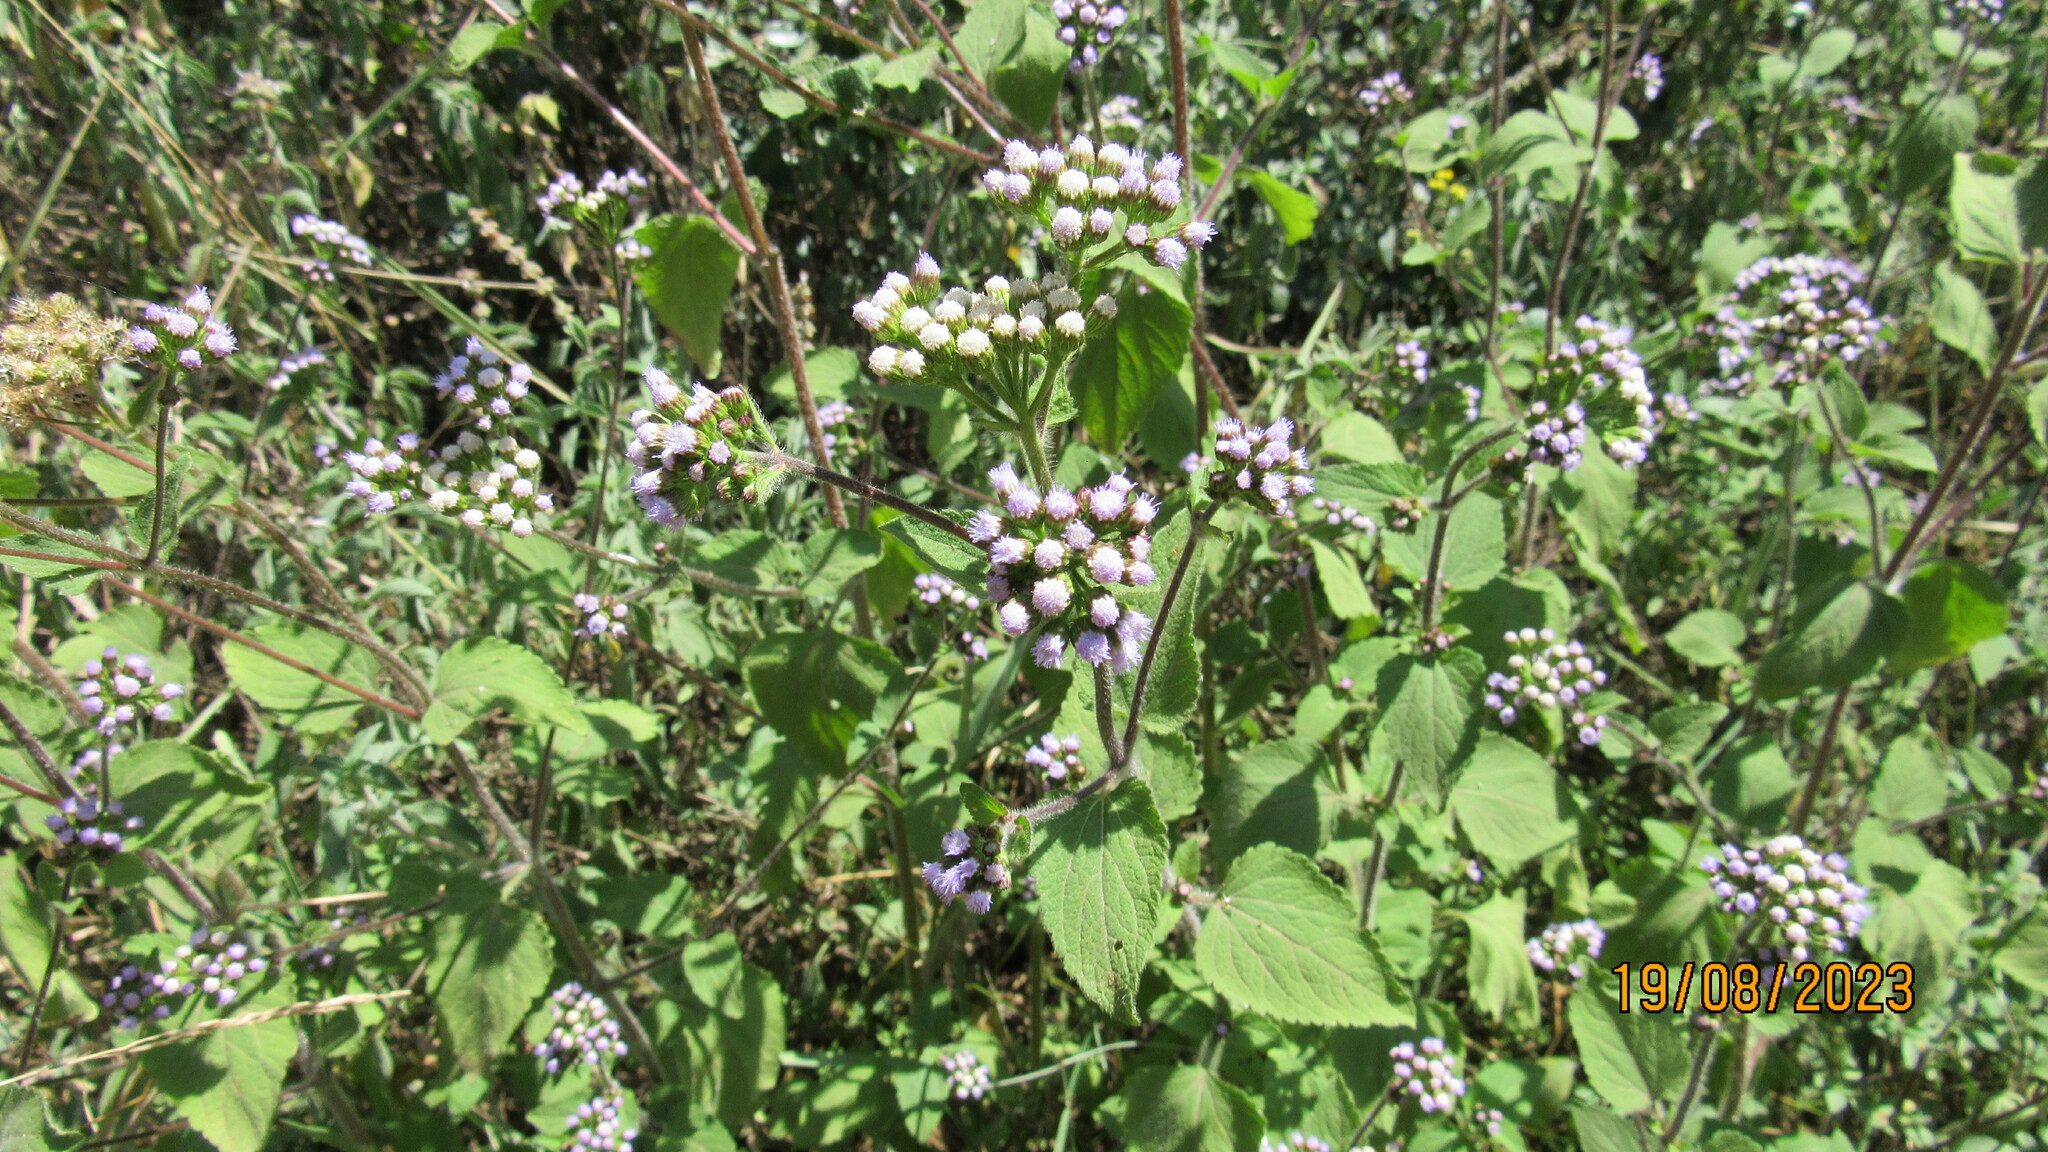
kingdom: Plantae
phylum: Tracheophyta
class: Magnoliopsida
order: Asterales
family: Asteraceae
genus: Ageratum
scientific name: Ageratum conyzoides
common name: Tropical whiteweed
